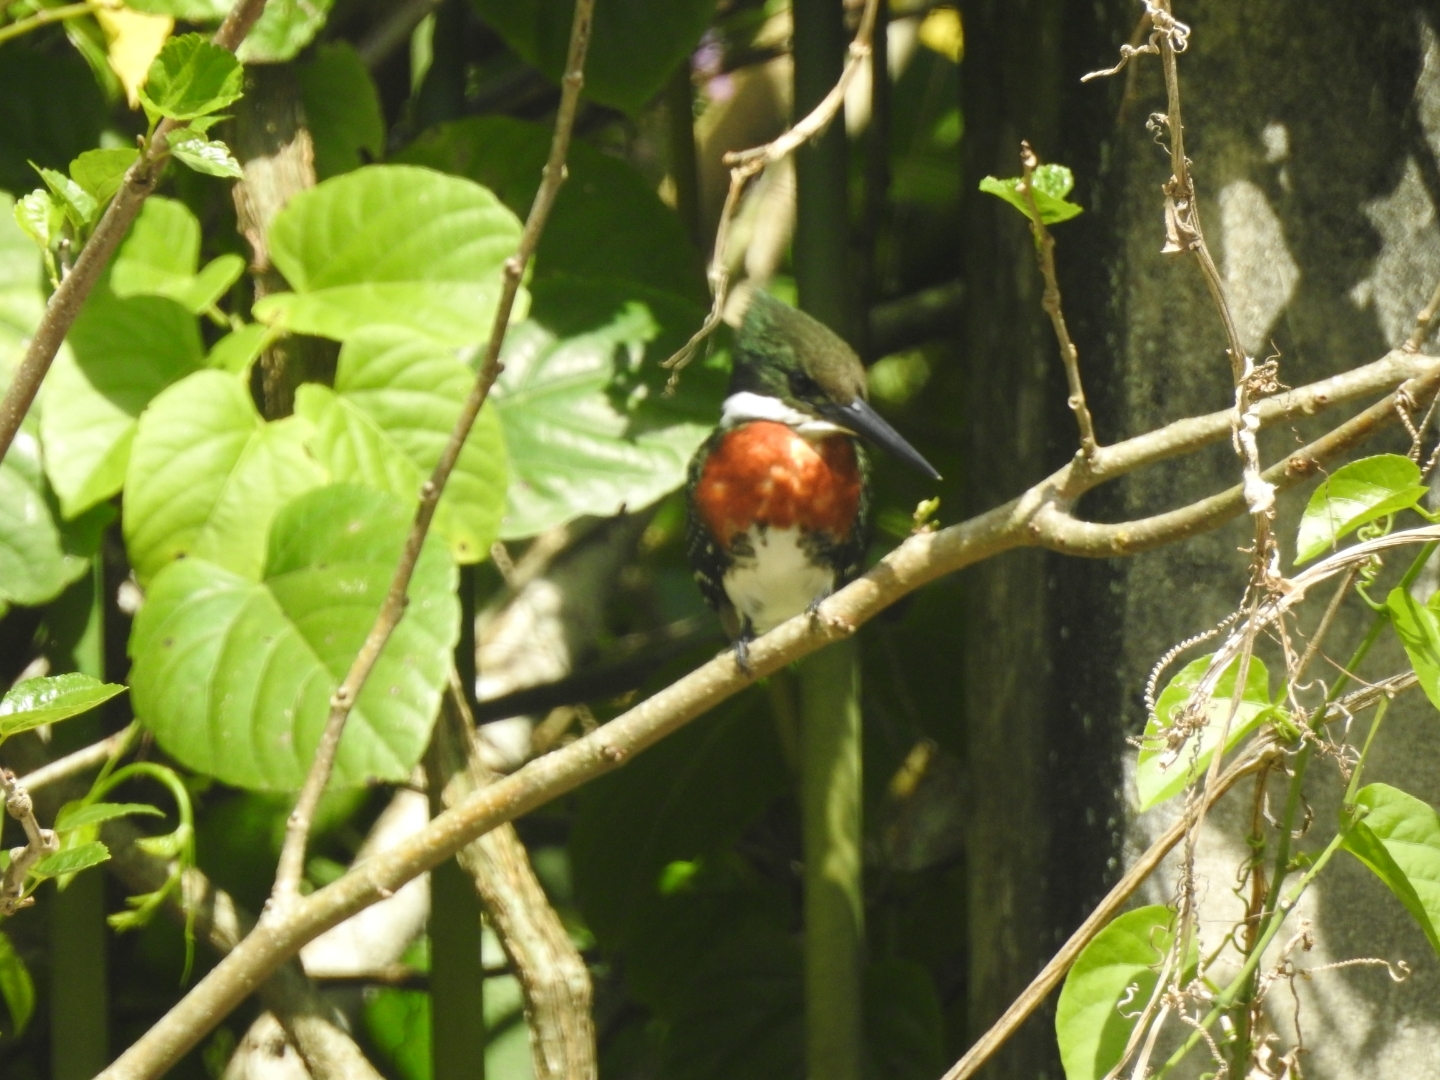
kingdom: Animalia
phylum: Chordata
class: Aves
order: Coraciiformes
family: Alcedinidae
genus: Chloroceryle
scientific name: Chloroceryle americana
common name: Green kingfisher
